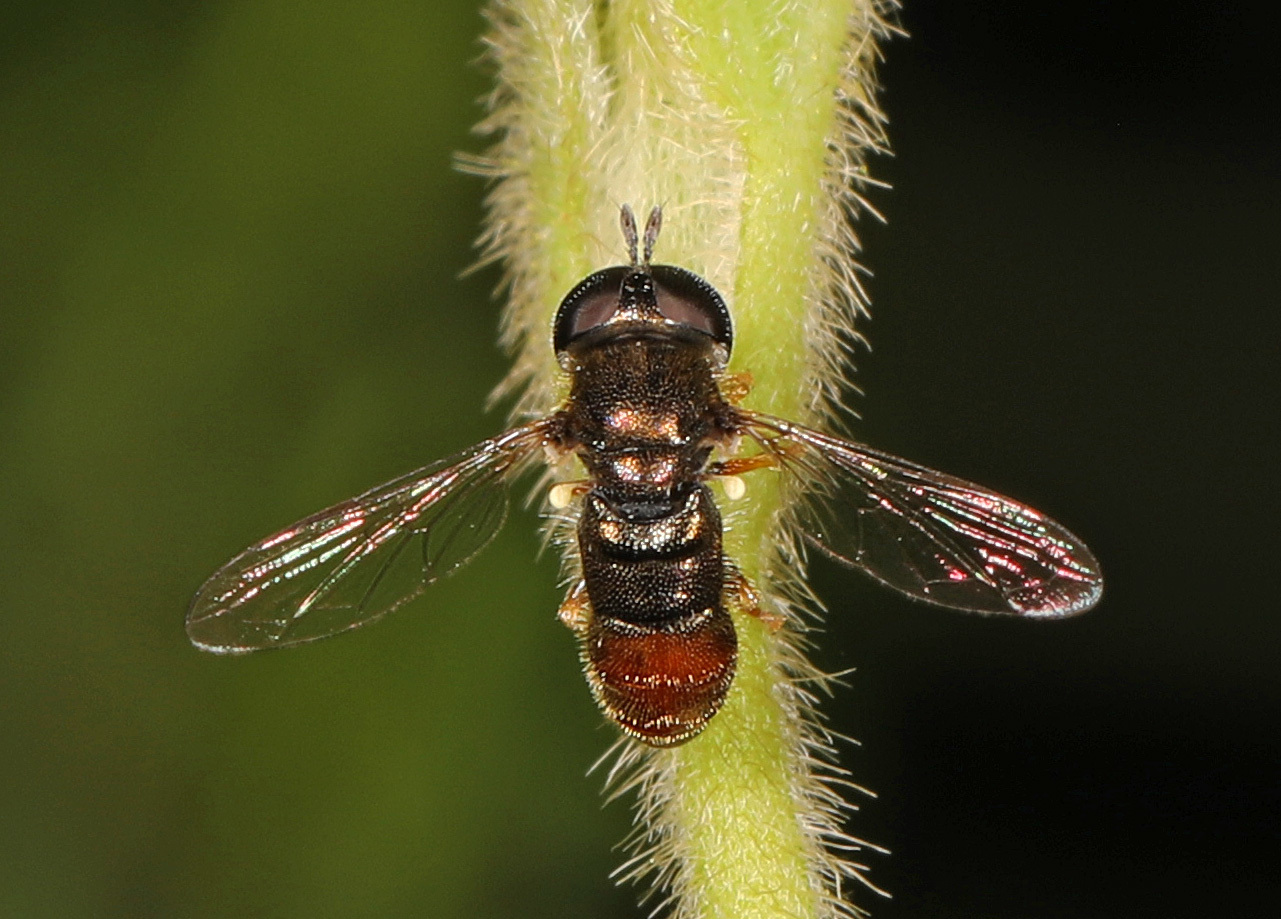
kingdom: Animalia
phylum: Arthropoda
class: Insecta
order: Diptera
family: Syrphidae
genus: Paragus
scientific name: Paragus haemorrhous
